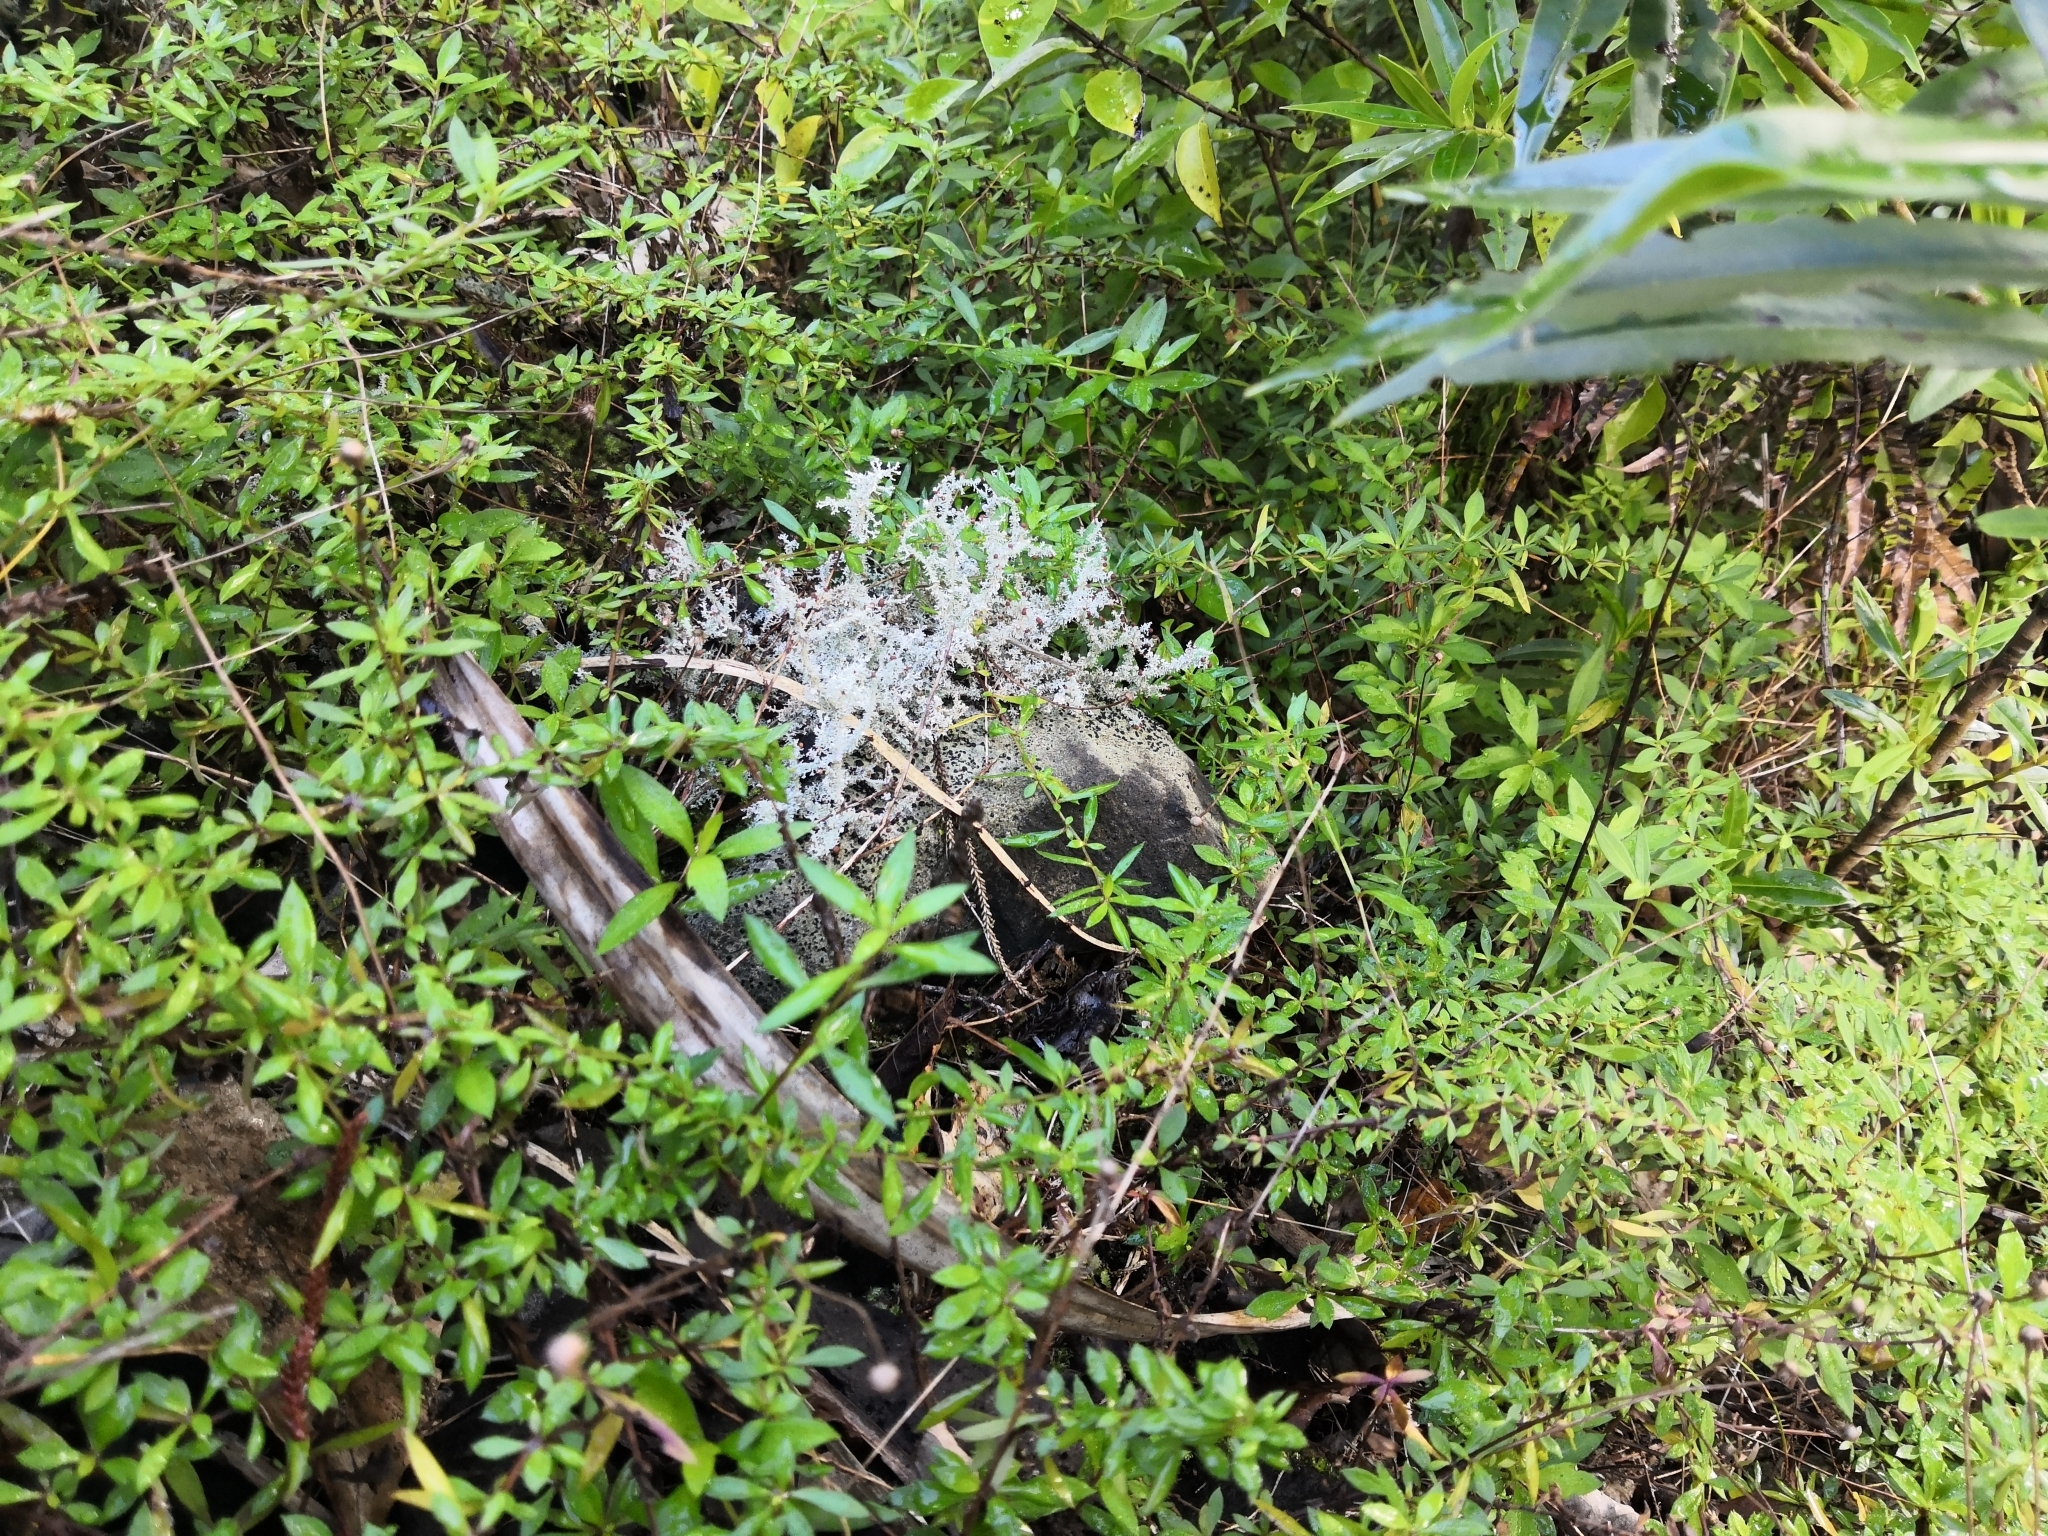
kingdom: Fungi
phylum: Ascomycota
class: Lecanoromycetes
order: Lecanorales
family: Stereocaulaceae
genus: Stereocaulon
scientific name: Stereocaulon ramulosum
